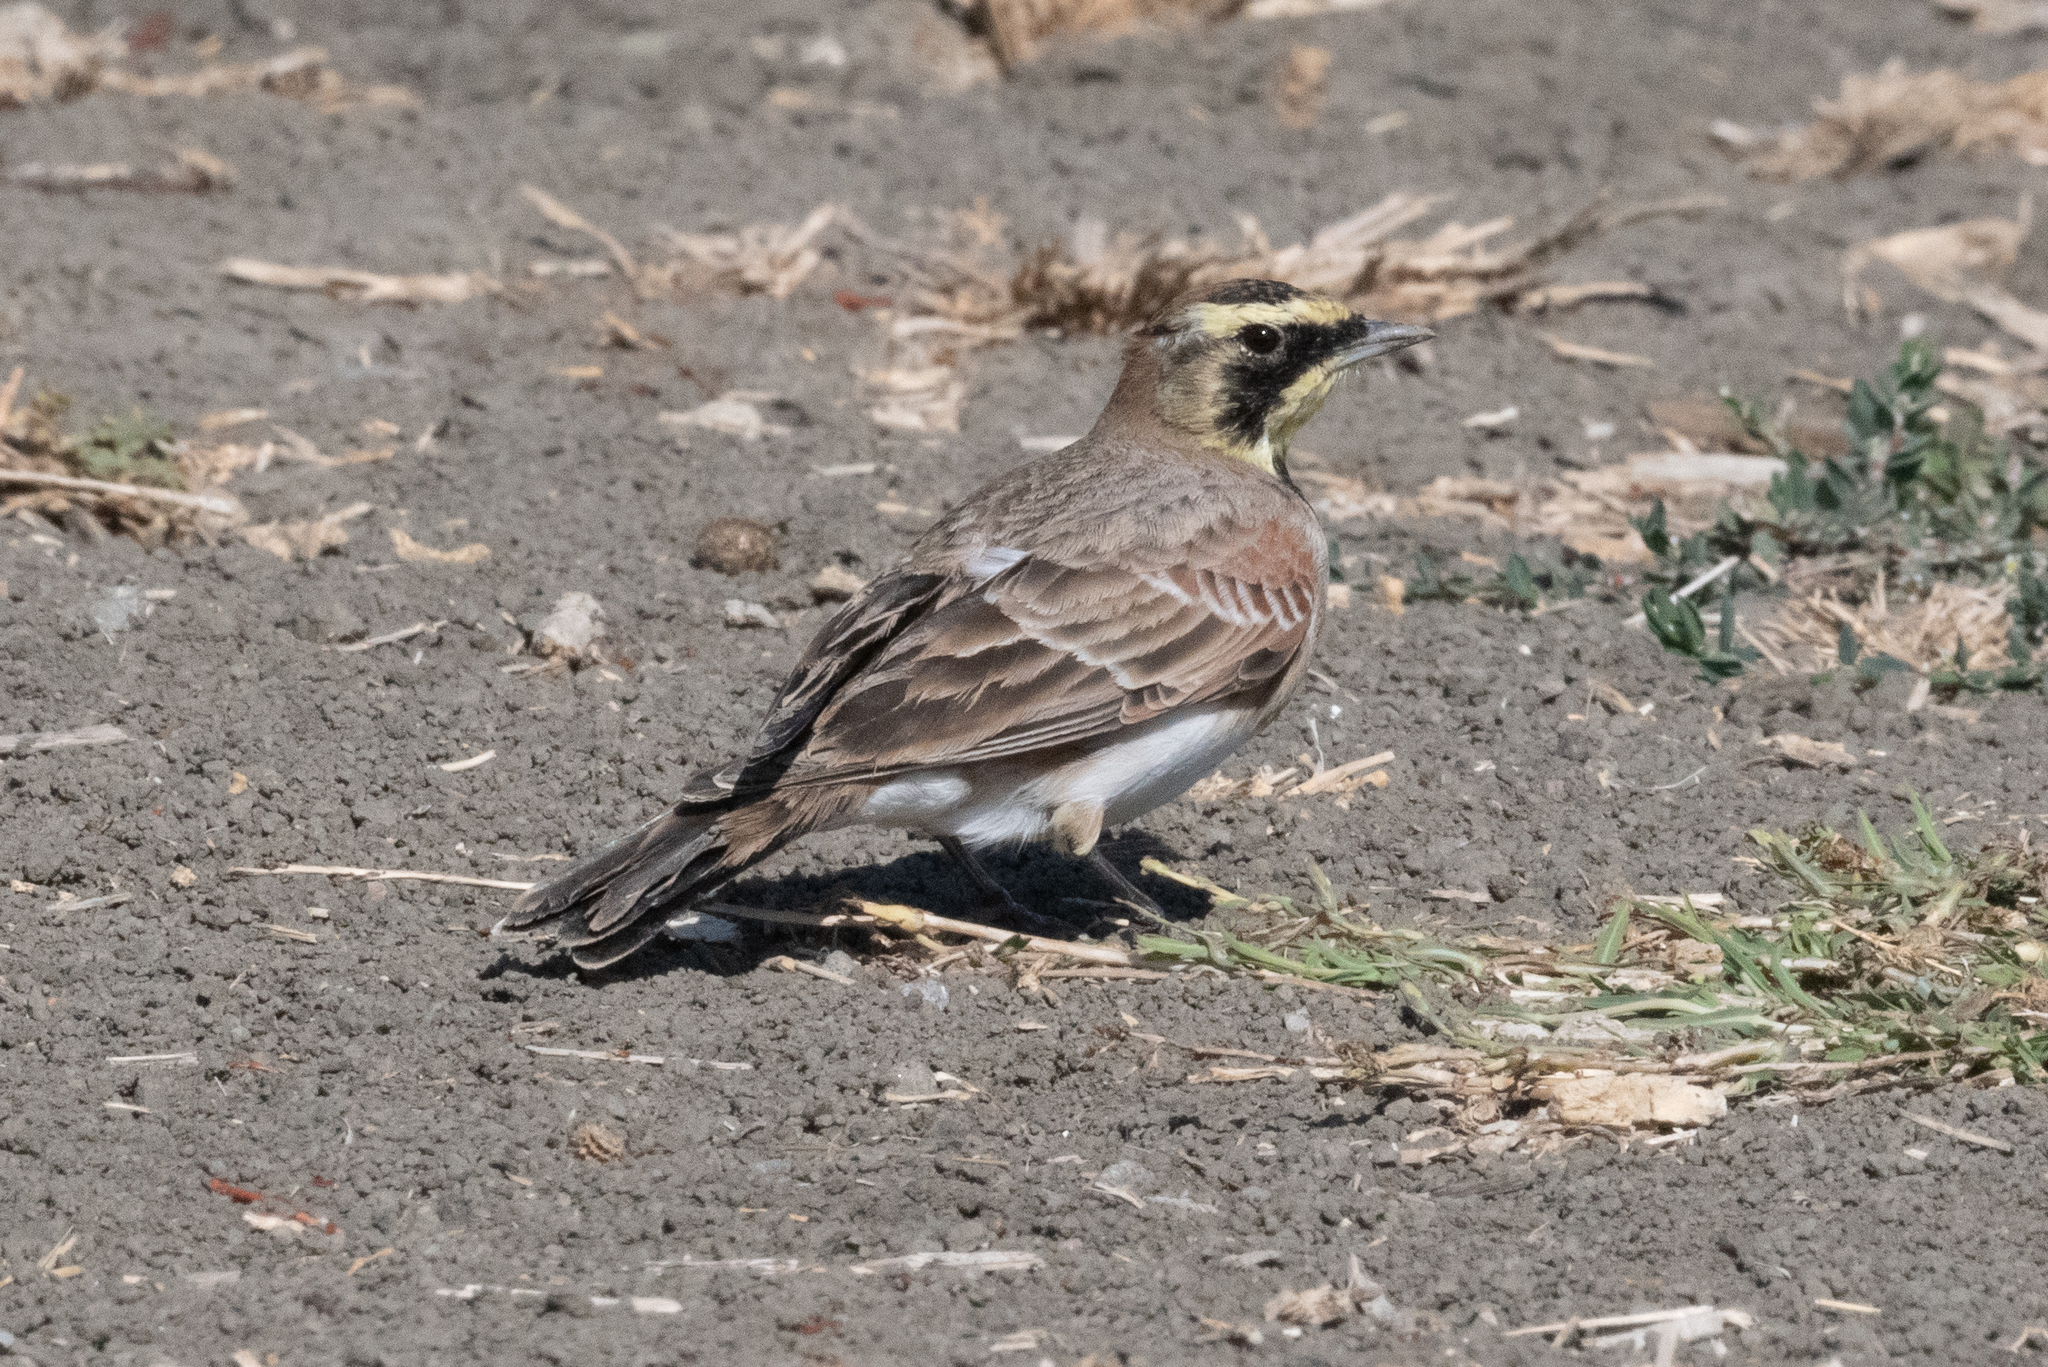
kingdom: Animalia
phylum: Chordata
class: Aves
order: Passeriformes
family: Alaudidae
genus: Eremophila
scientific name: Eremophila alpestris
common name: Horned lark
